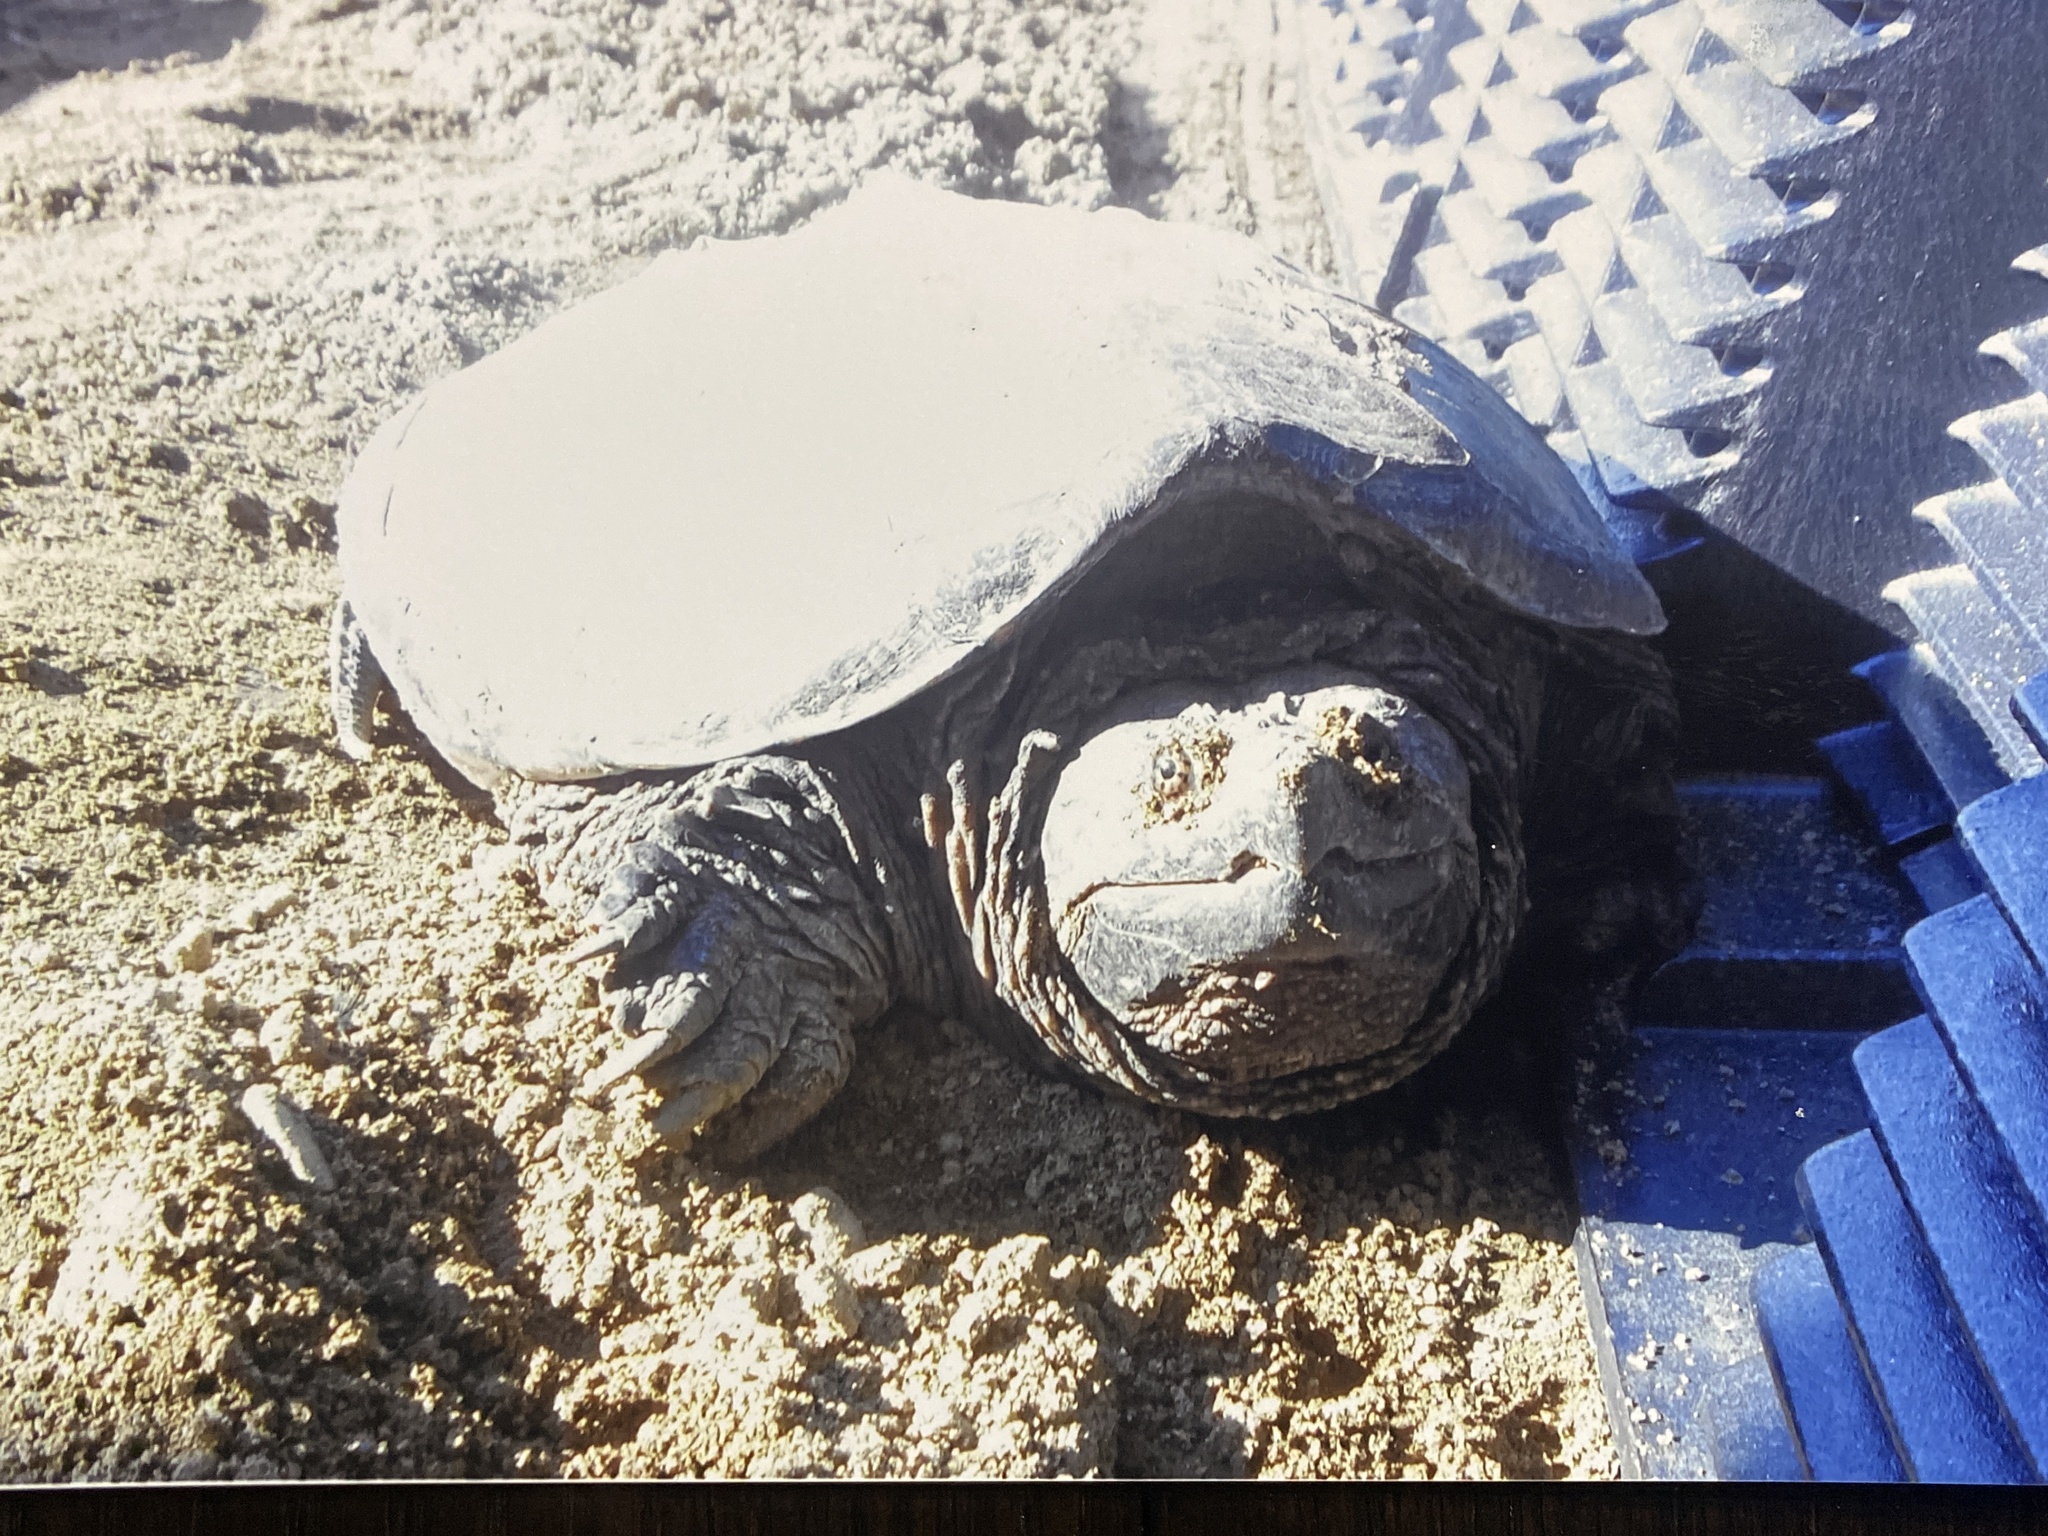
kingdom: Animalia
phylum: Chordata
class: Testudines
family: Chelydridae
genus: Chelydra
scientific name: Chelydra serpentina
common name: Common snapping turtle
